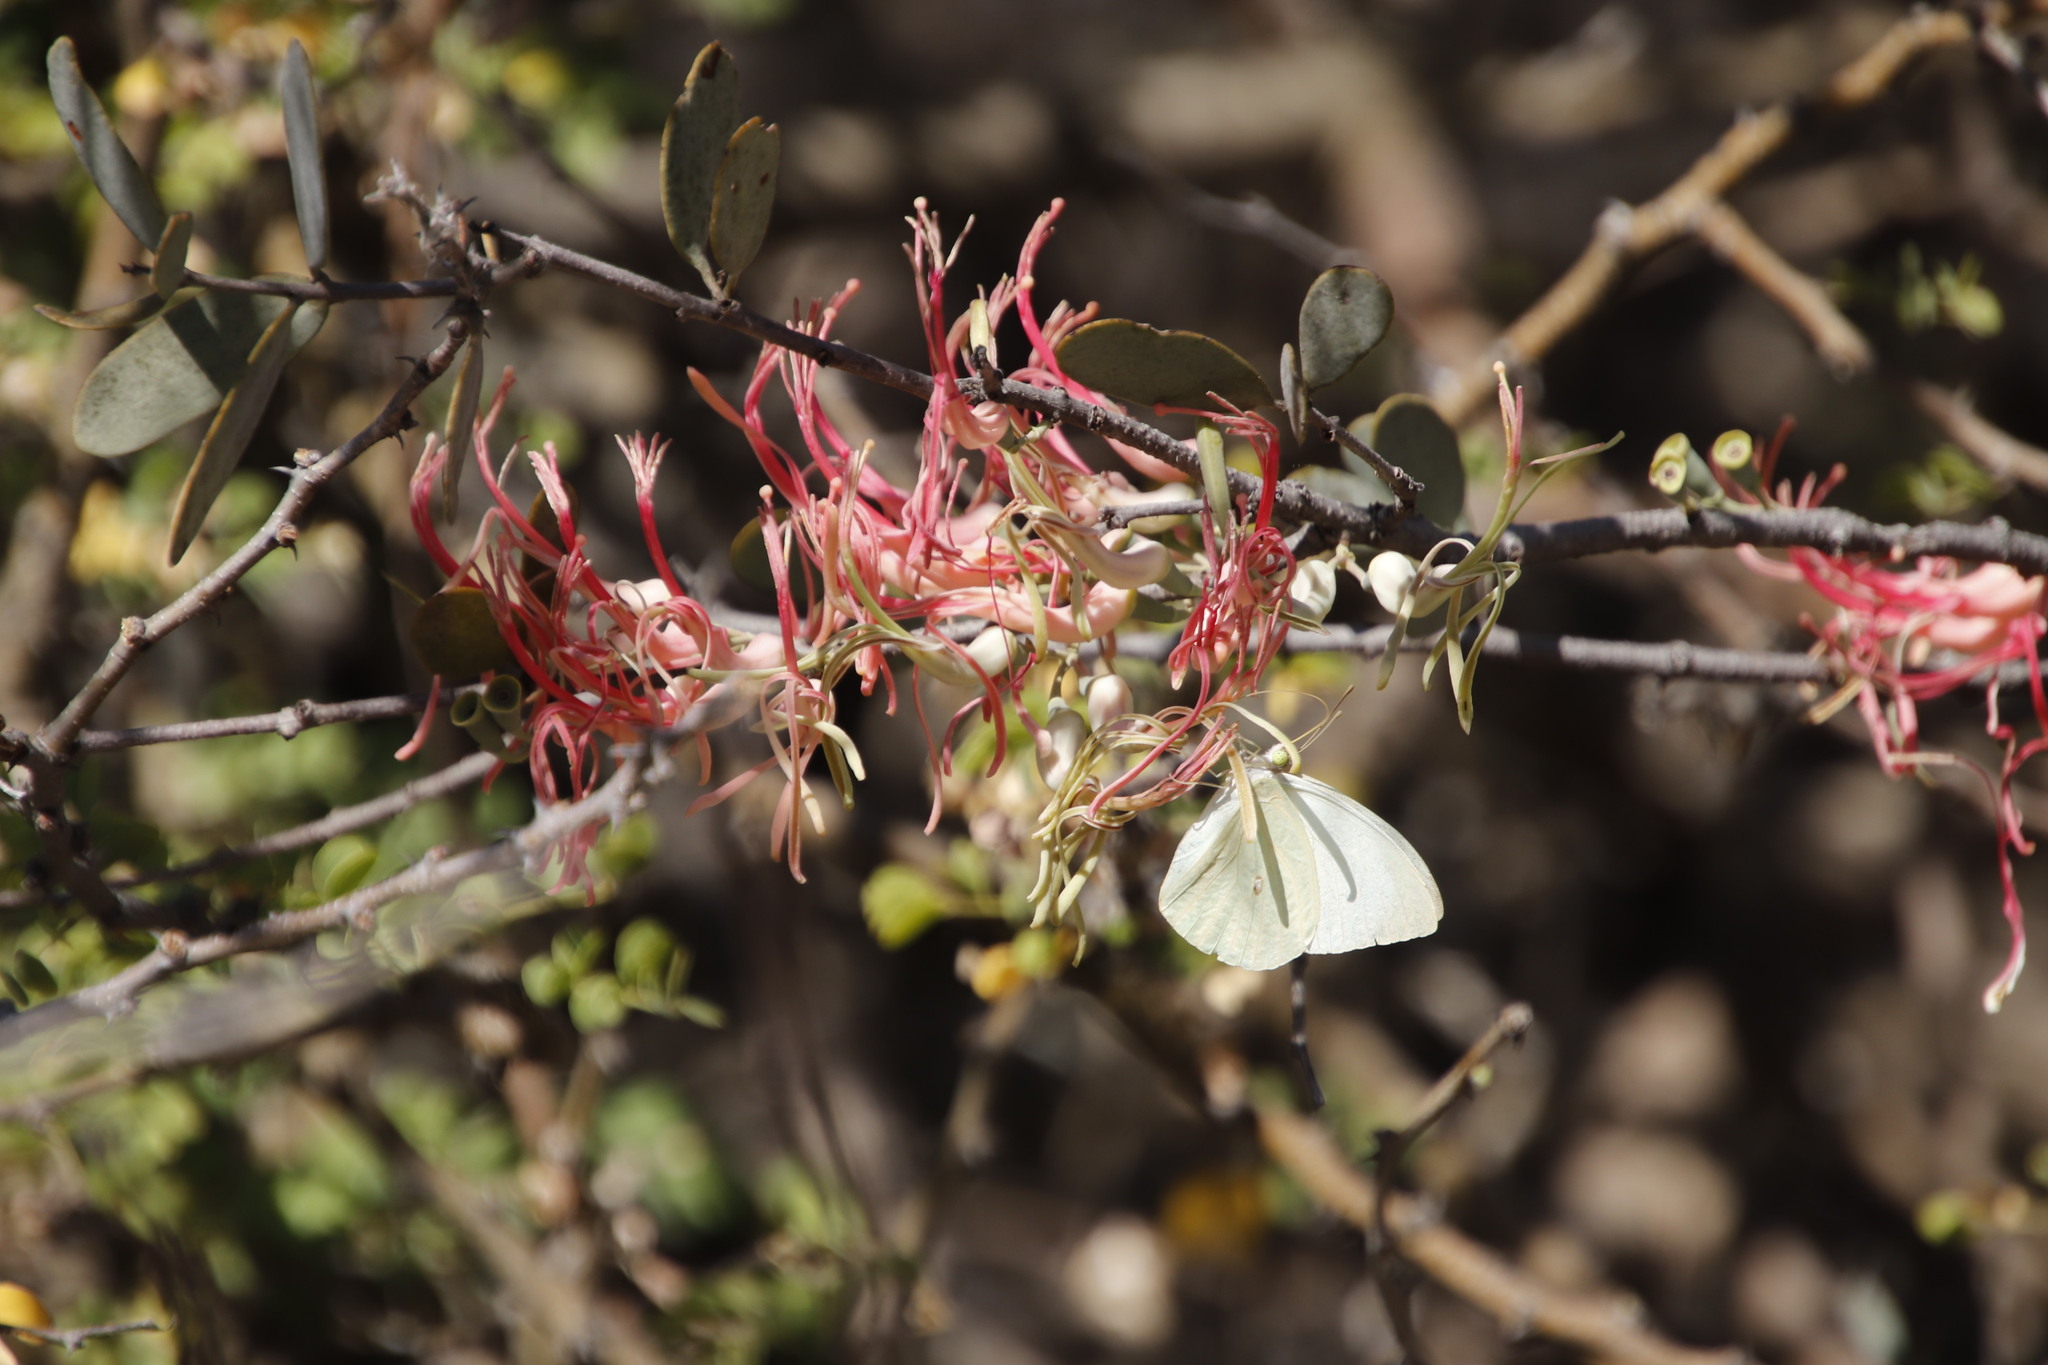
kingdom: Plantae
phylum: Tracheophyta
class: Magnoliopsida
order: Santalales
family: Loranthaceae
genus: Plicosepalus
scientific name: Plicosepalus kalachariensis
